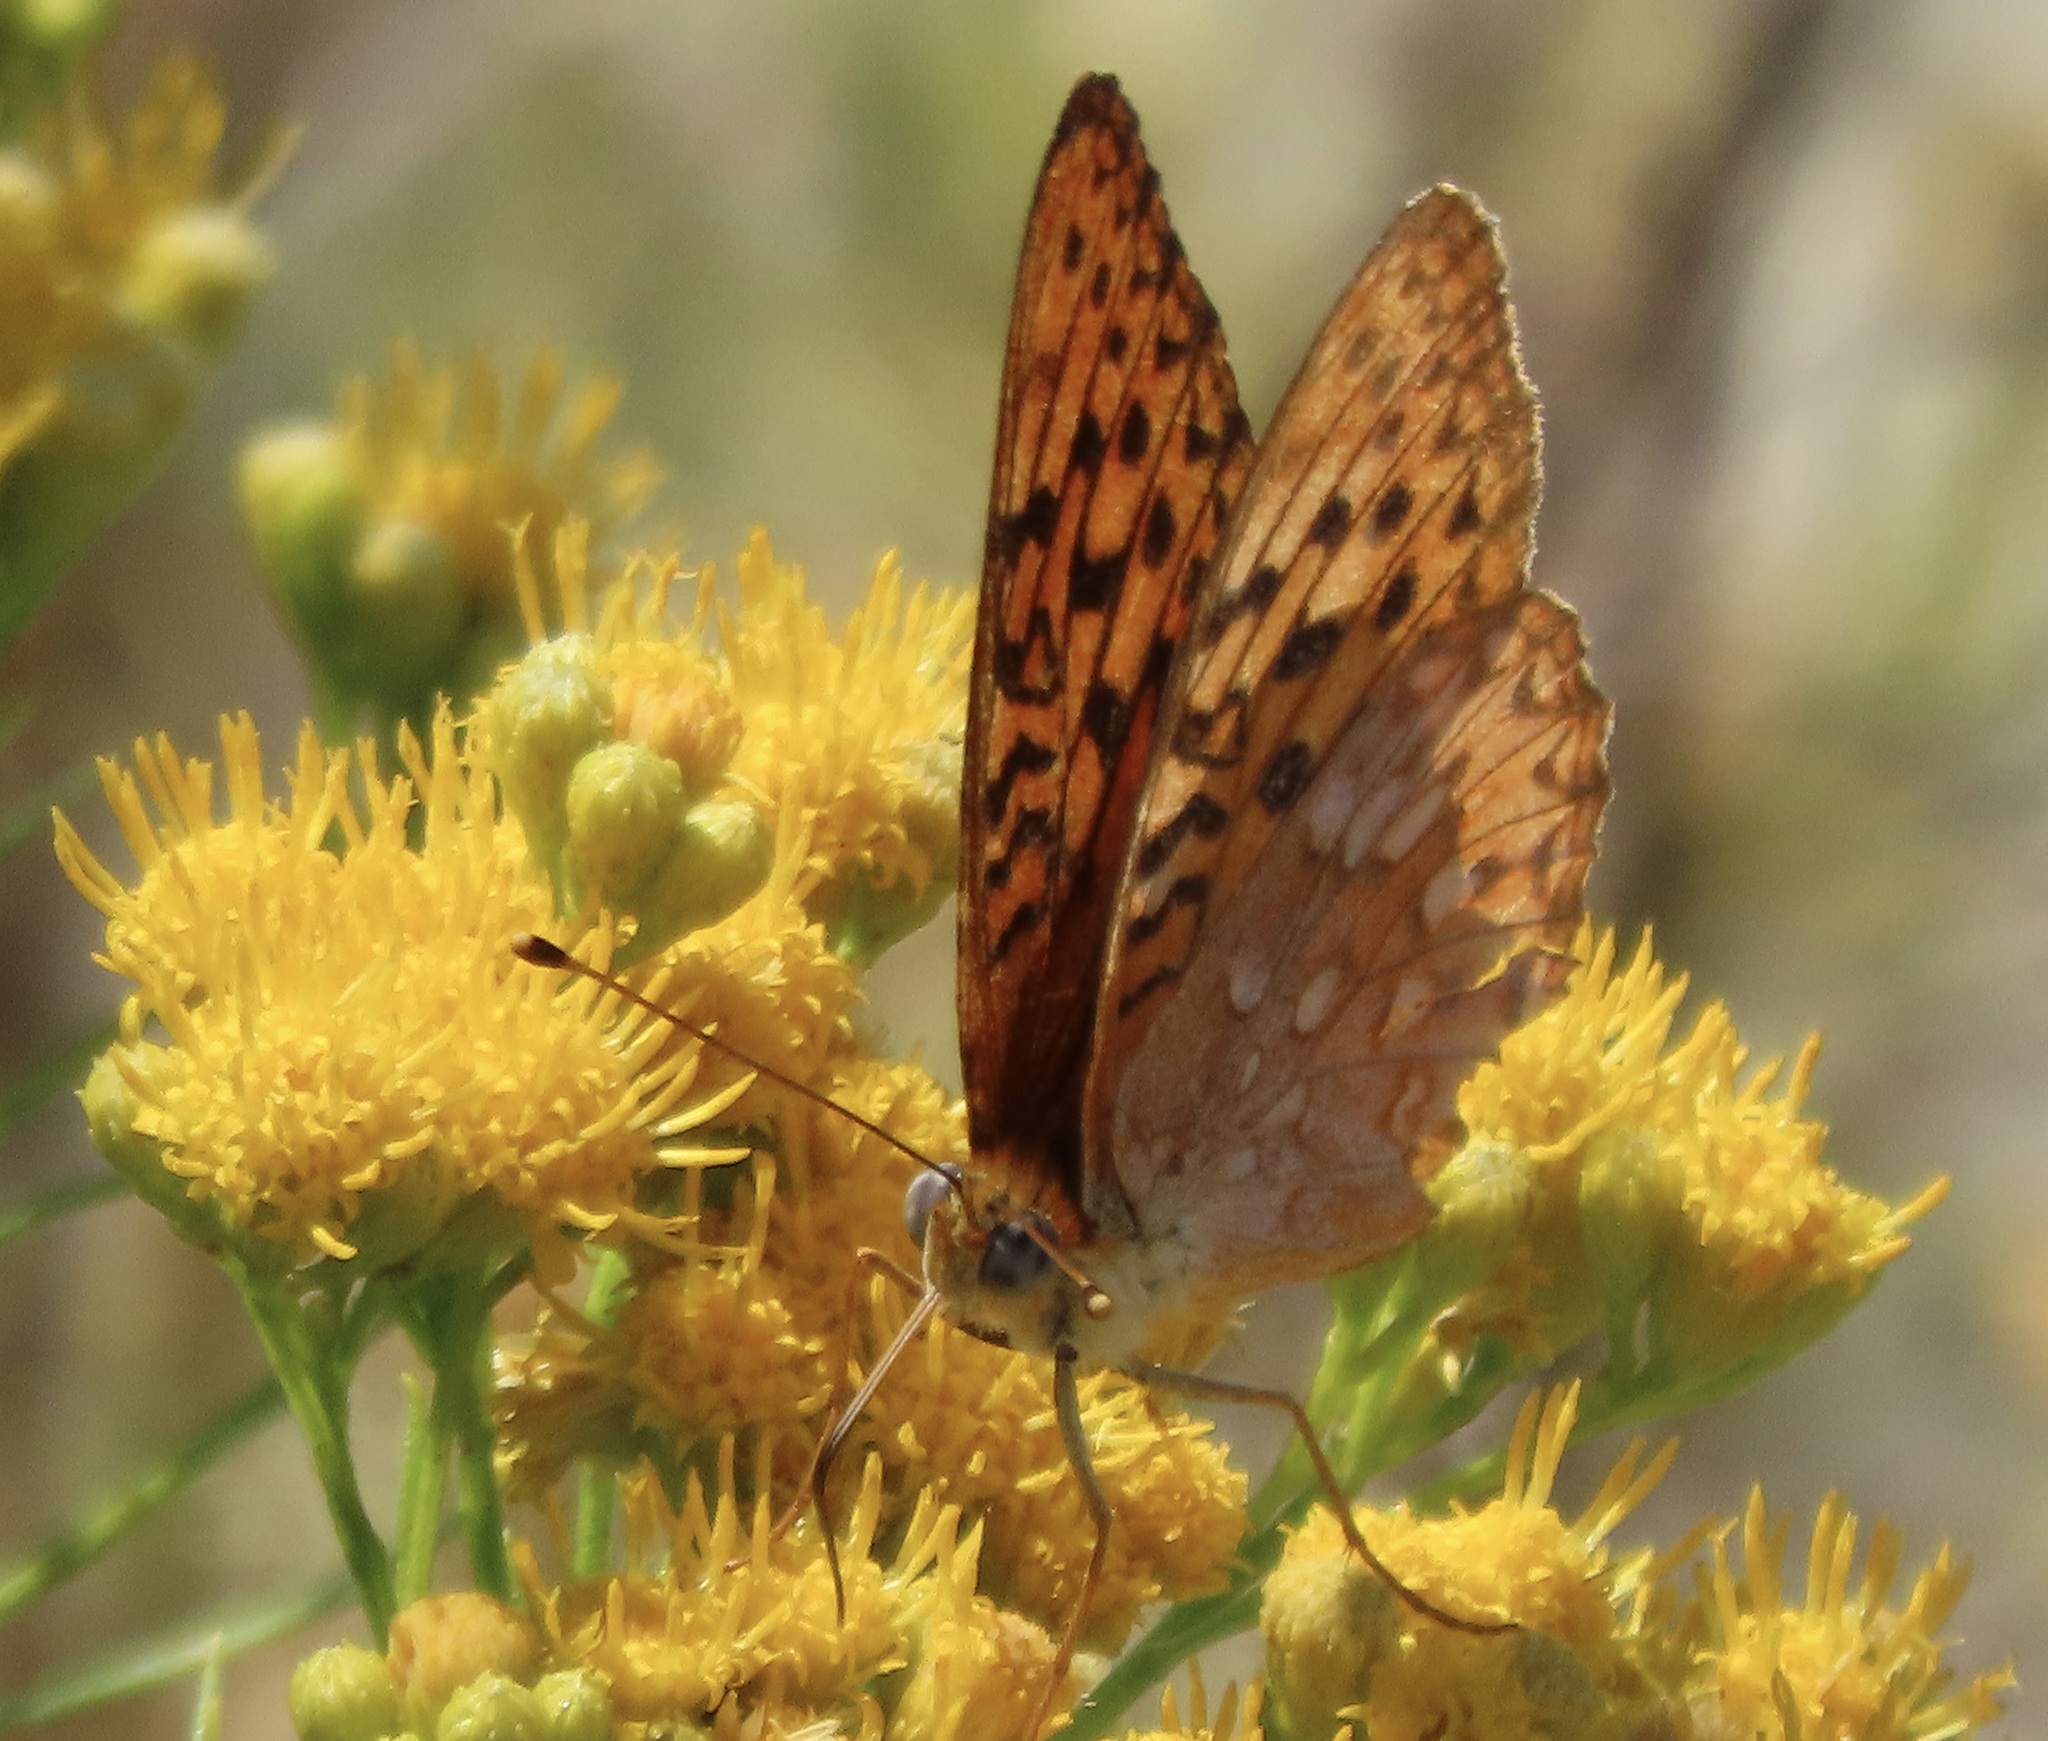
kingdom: Animalia
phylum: Arthropoda
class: Insecta
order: Lepidoptera
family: Nymphalidae
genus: Speyeria
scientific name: Speyeria adiaste
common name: Unsilvered fritillary
